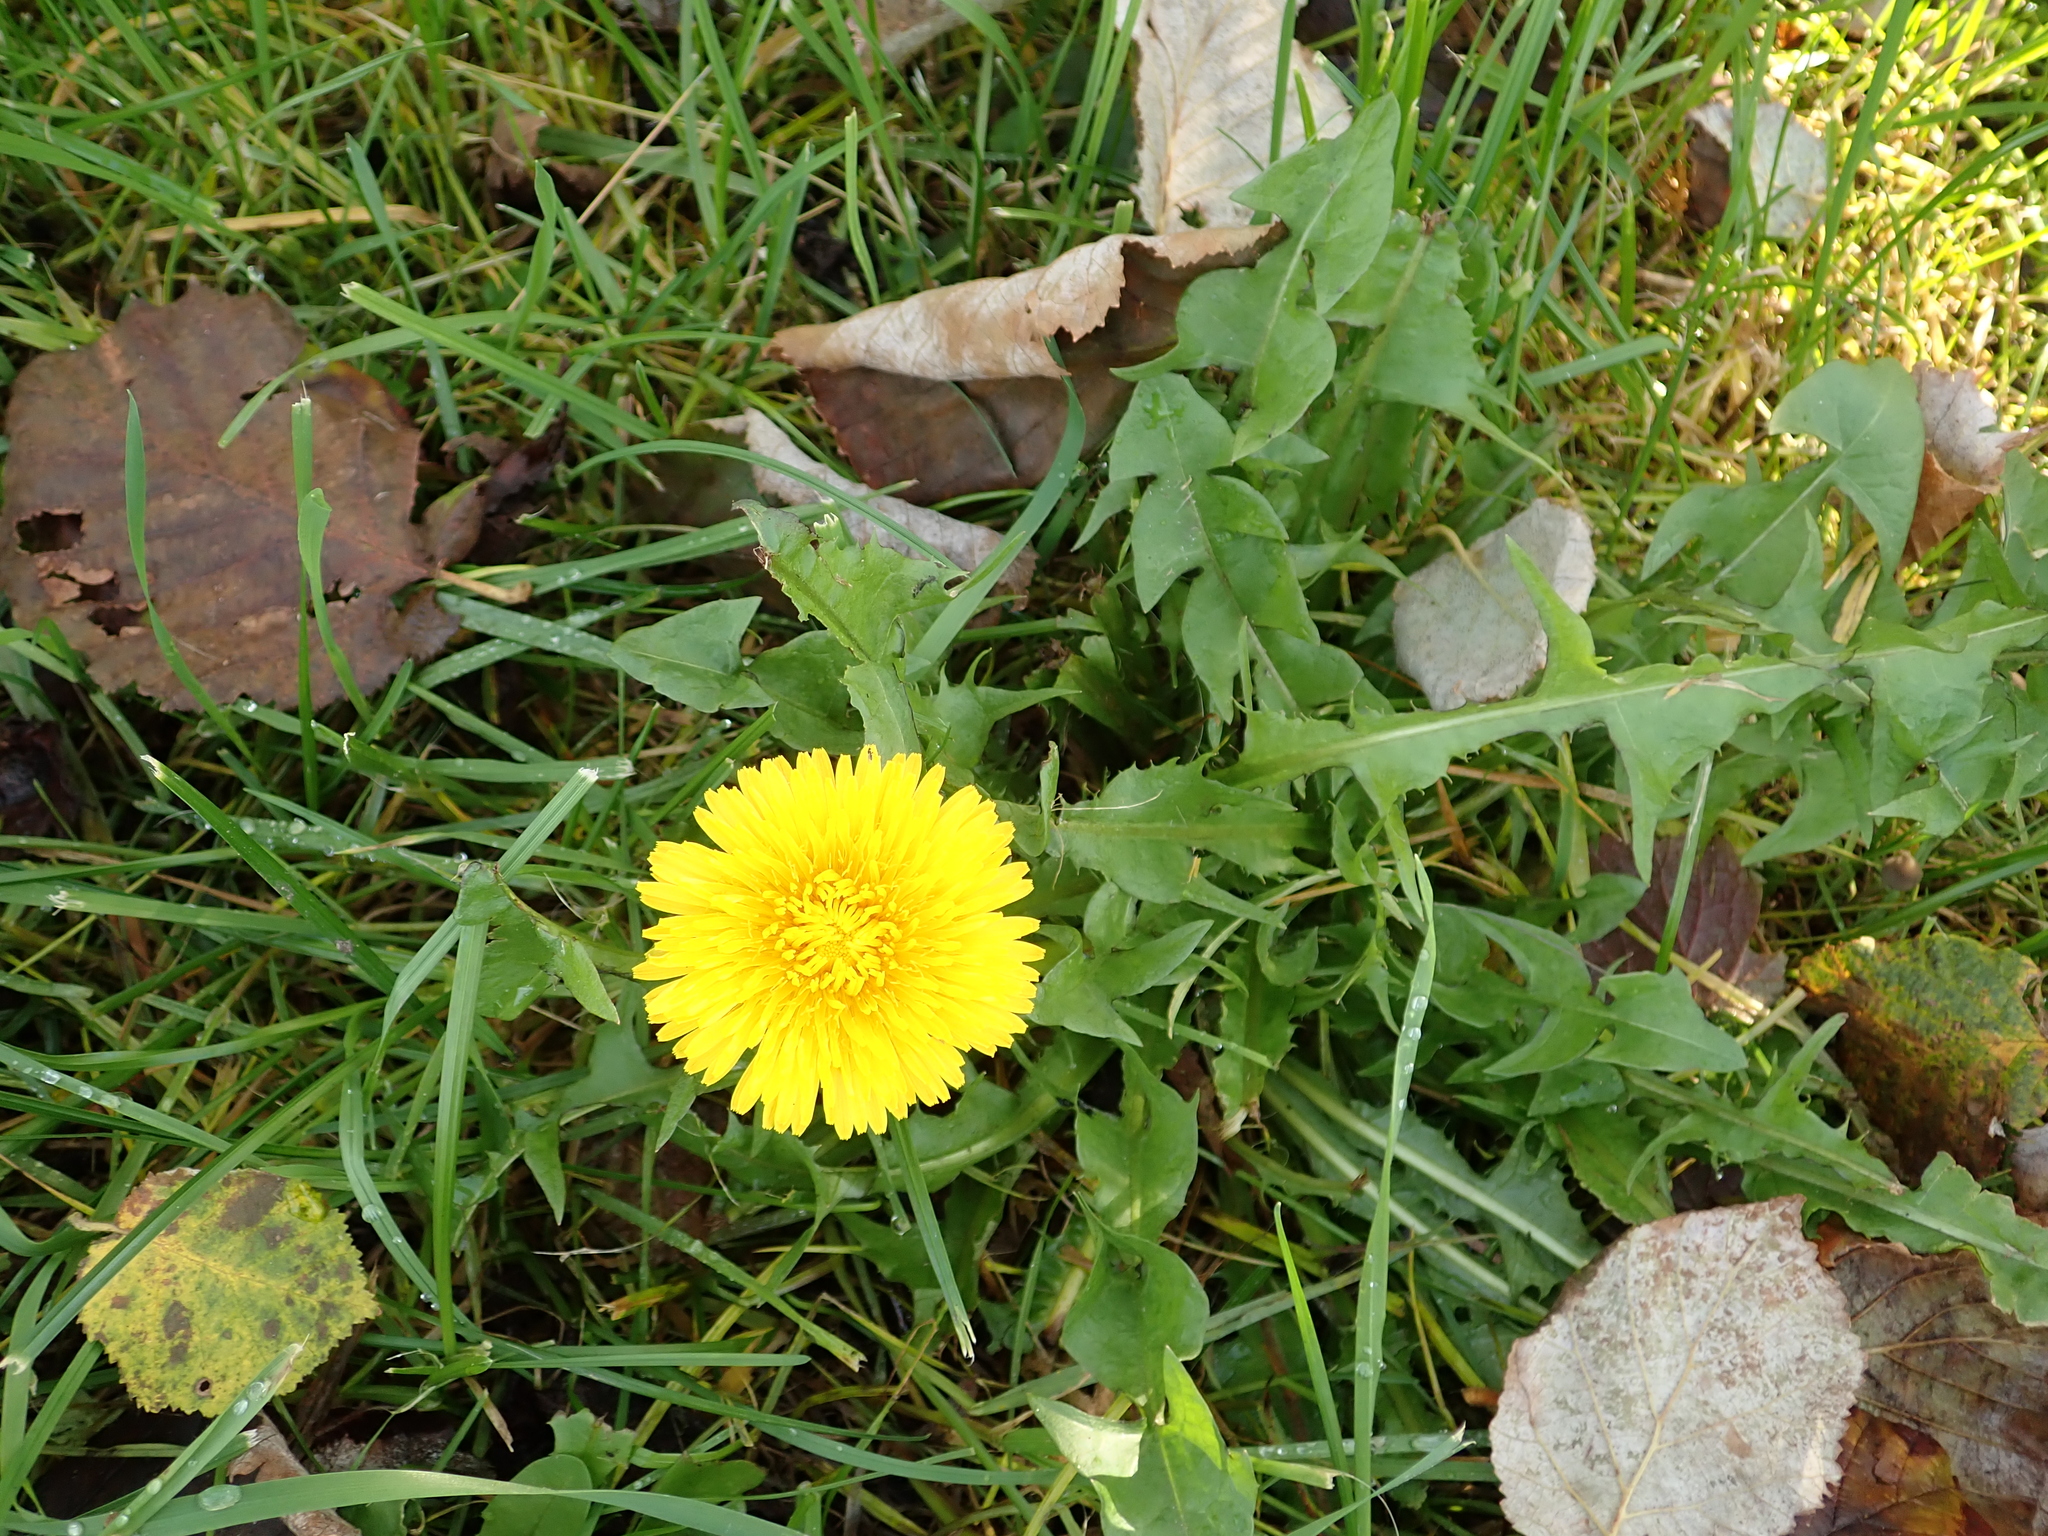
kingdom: Plantae
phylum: Tracheophyta
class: Magnoliopsida
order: Asterales
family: Asteraceae
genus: Taraxacum
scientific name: Taraxacum officinale
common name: Common dandelion
